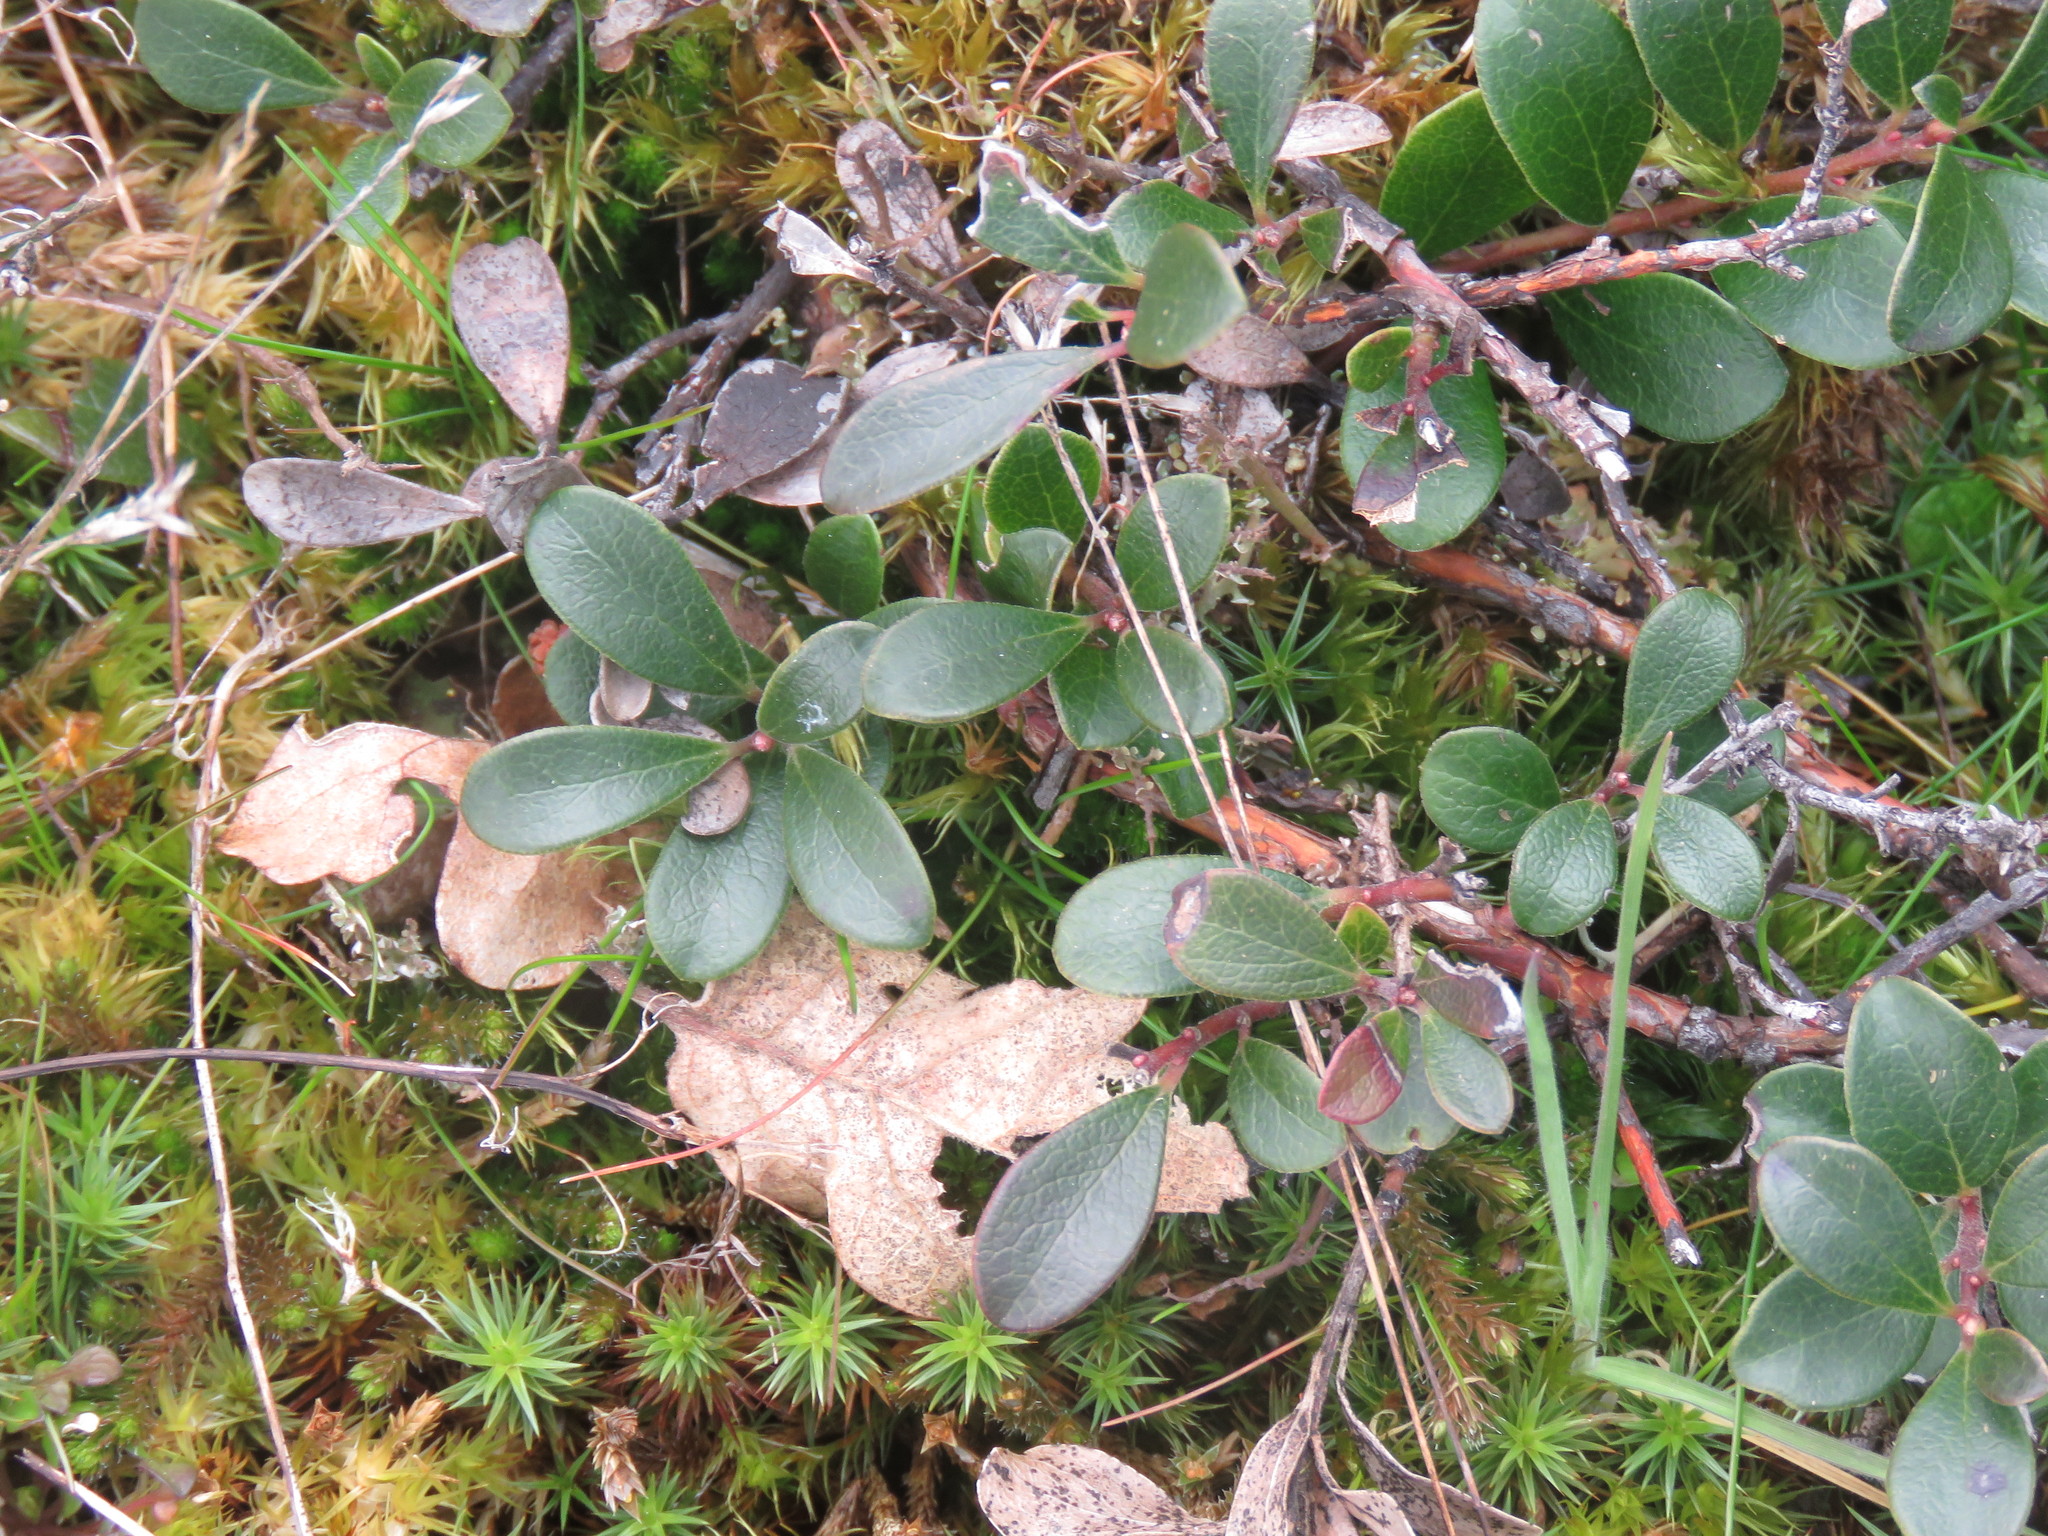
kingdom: Plantae
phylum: Tracheophyta
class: Magnoliopsida
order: Ericales
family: Ericaceae
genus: Arctostaphylos
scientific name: Arctostaphylos uva-ursi
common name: Bearberry
